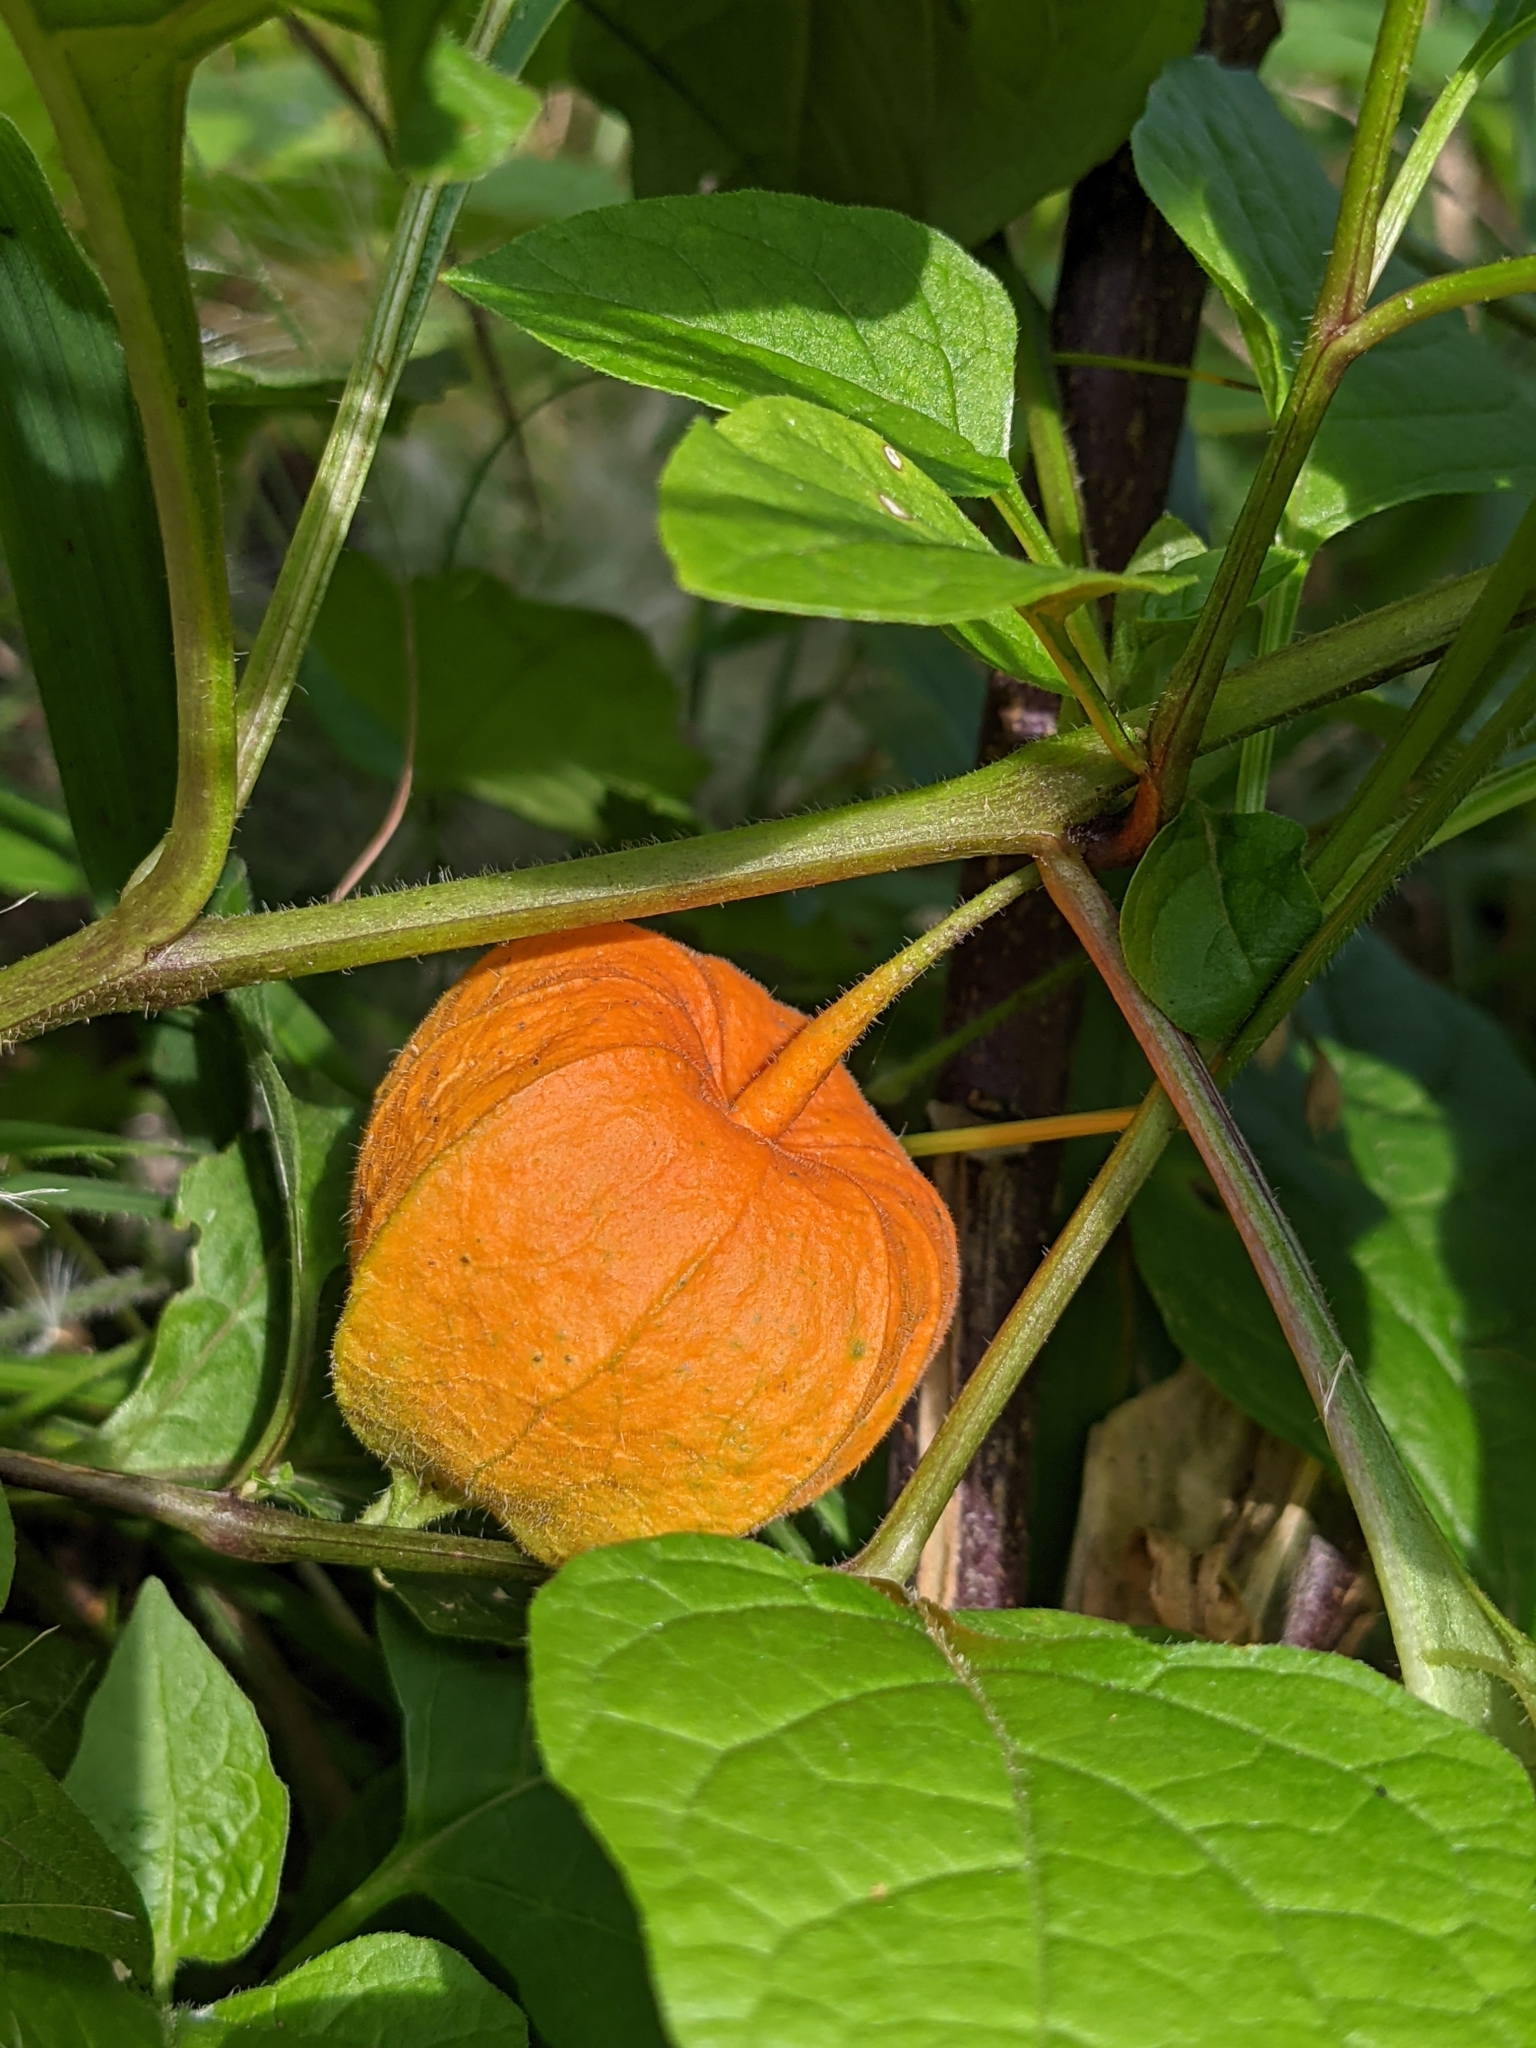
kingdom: Plantae
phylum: Tracheophyta
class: Magnoliopsida
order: Solanales
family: Solanaceae
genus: Alkekengi
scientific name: Alkekengi officinarum
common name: Japanese-lantern
